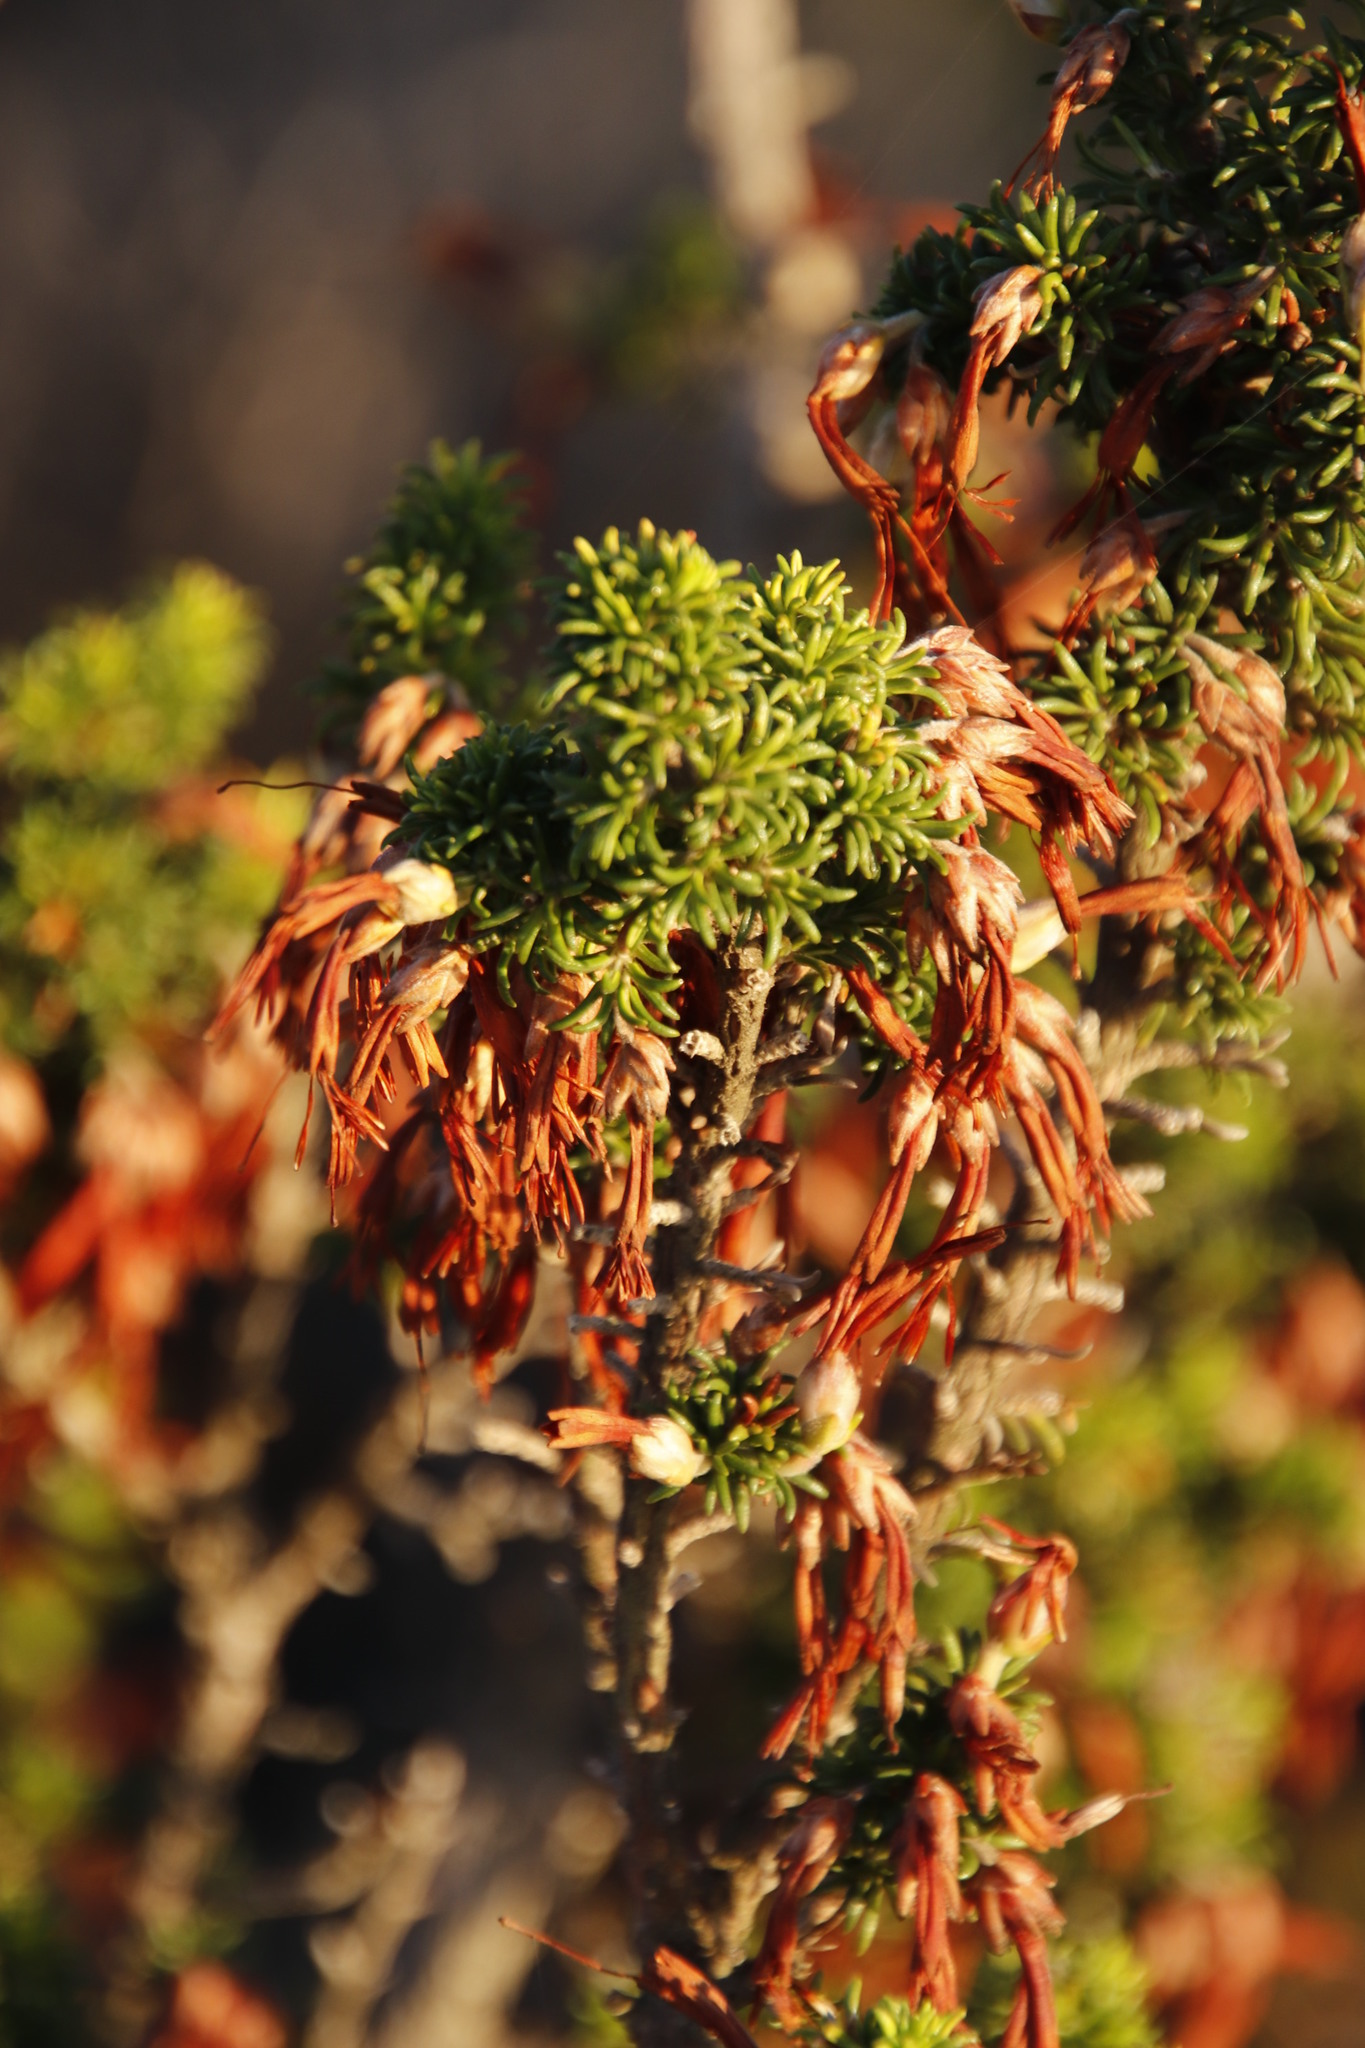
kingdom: Plantae
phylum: Tracheophyta
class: Magnoliopsida
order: Ericales
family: Ericaceae
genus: Erica
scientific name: Erica coccinea
